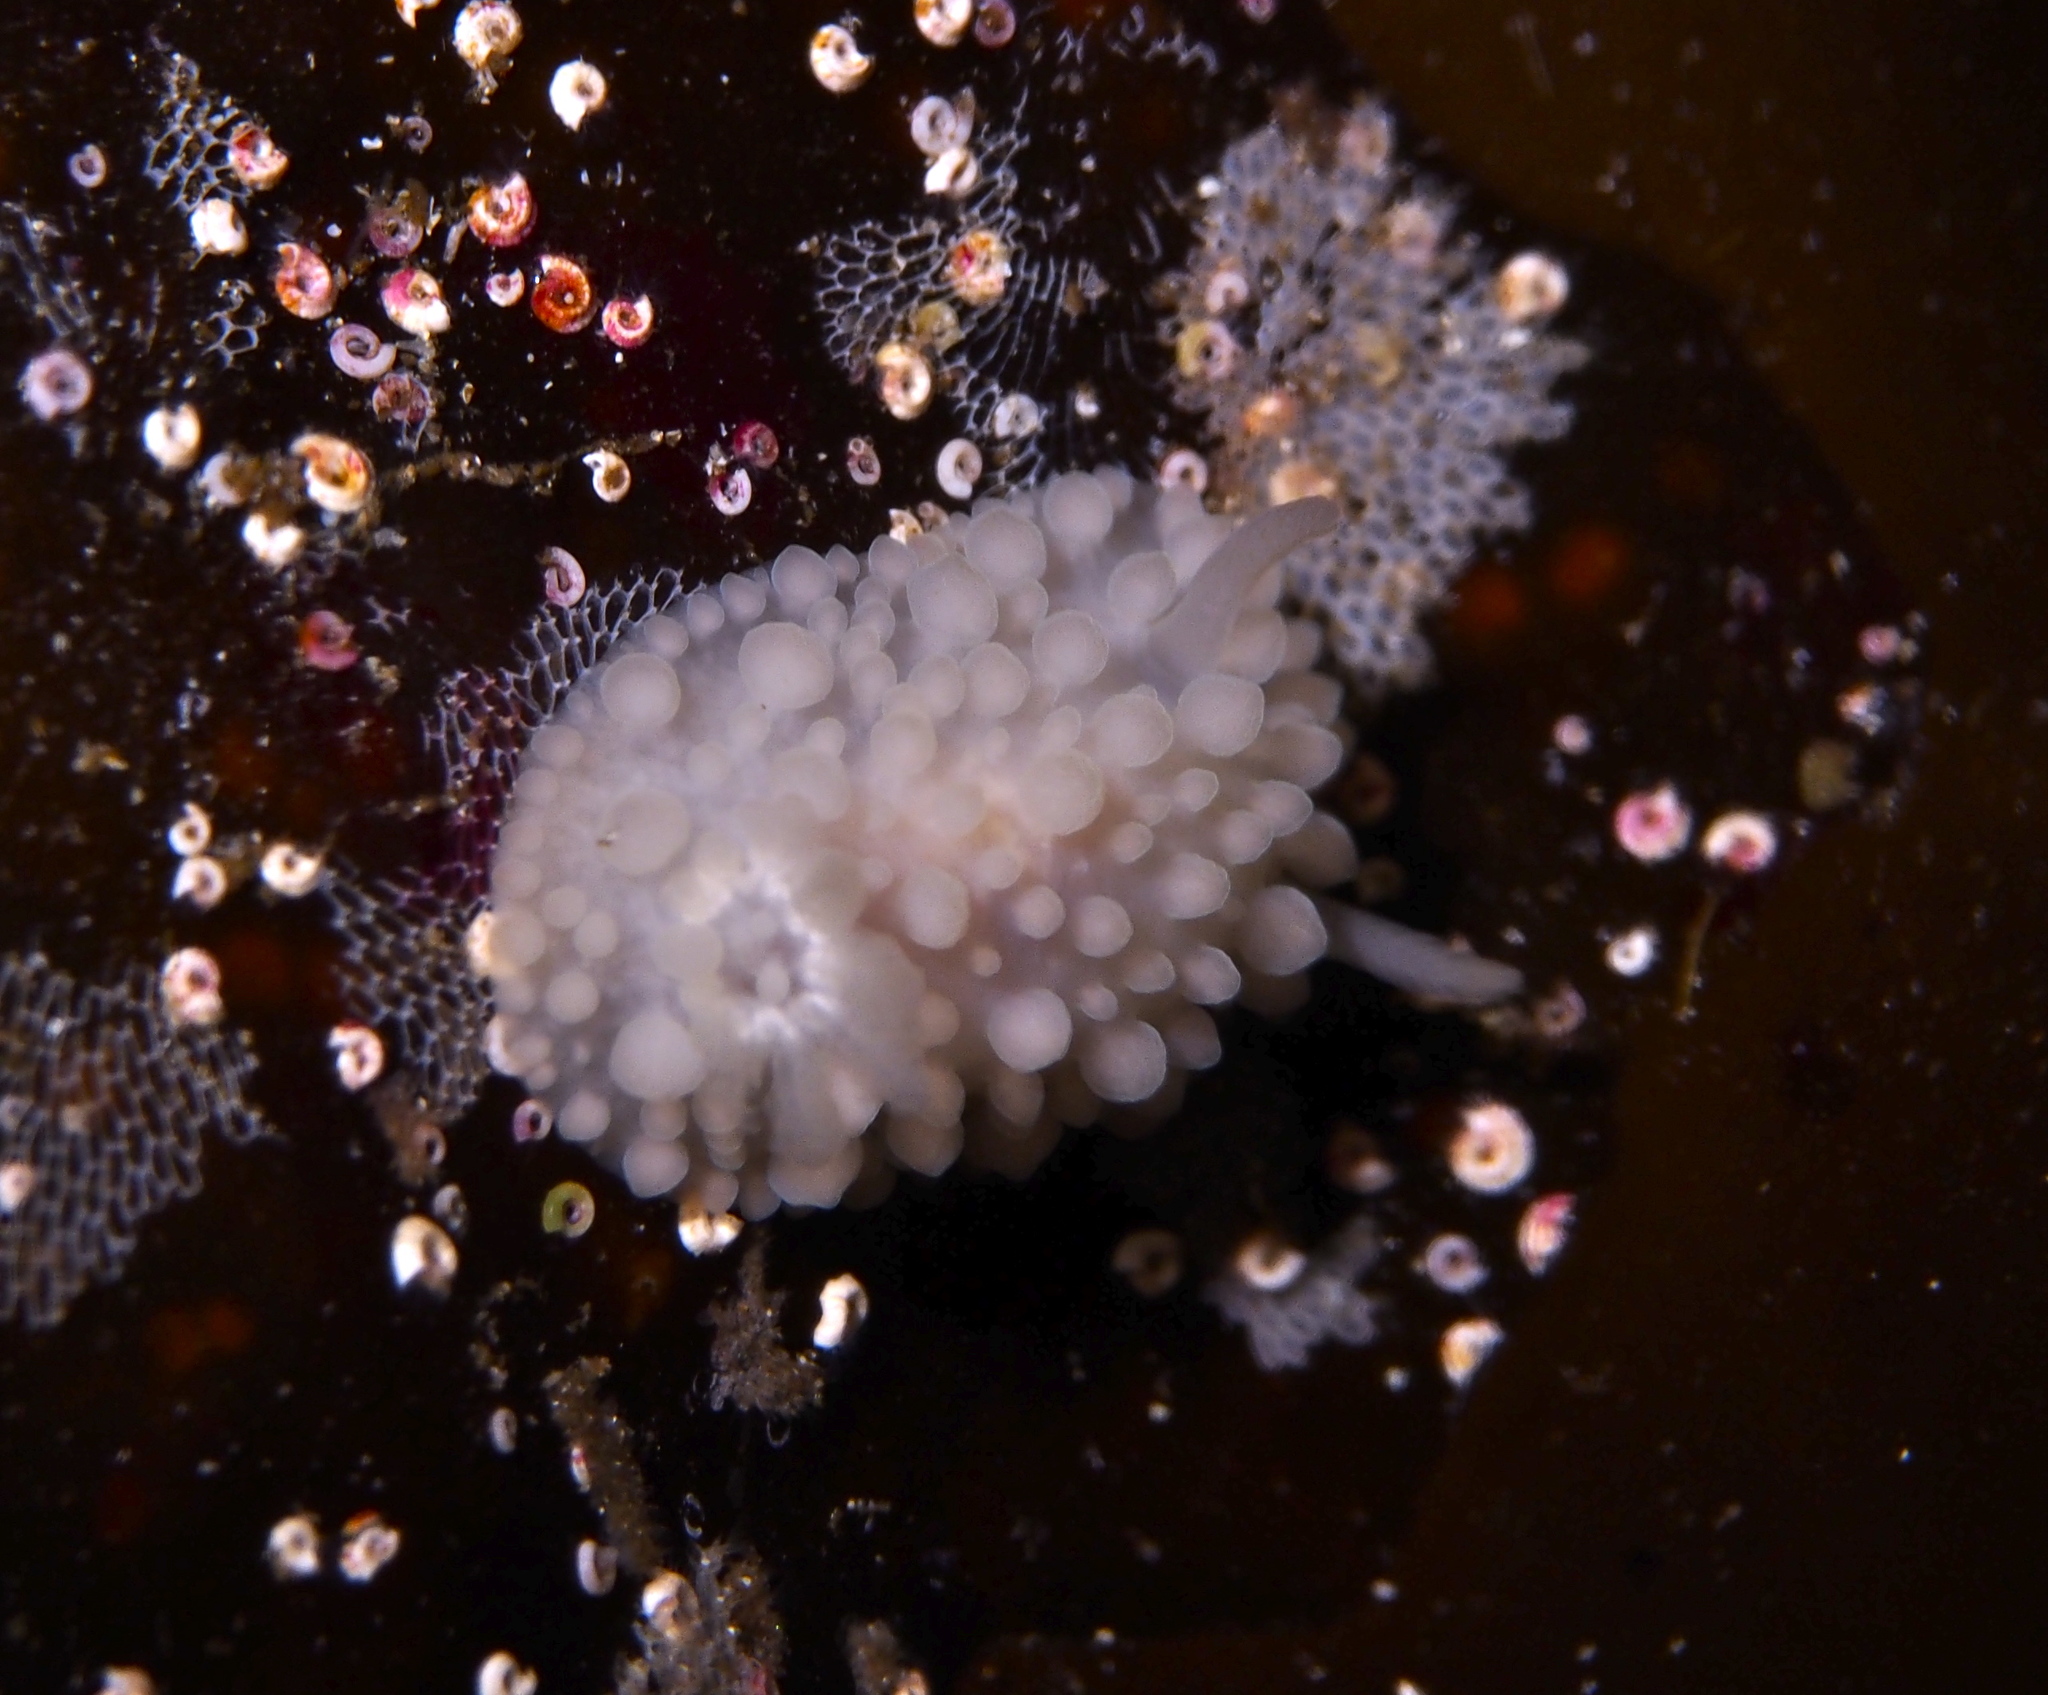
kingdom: Animalia
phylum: Mollusca
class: Gastropoda
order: Nudibranchia
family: Onchidorididae
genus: Adalaria
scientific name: Adalaria loveni
